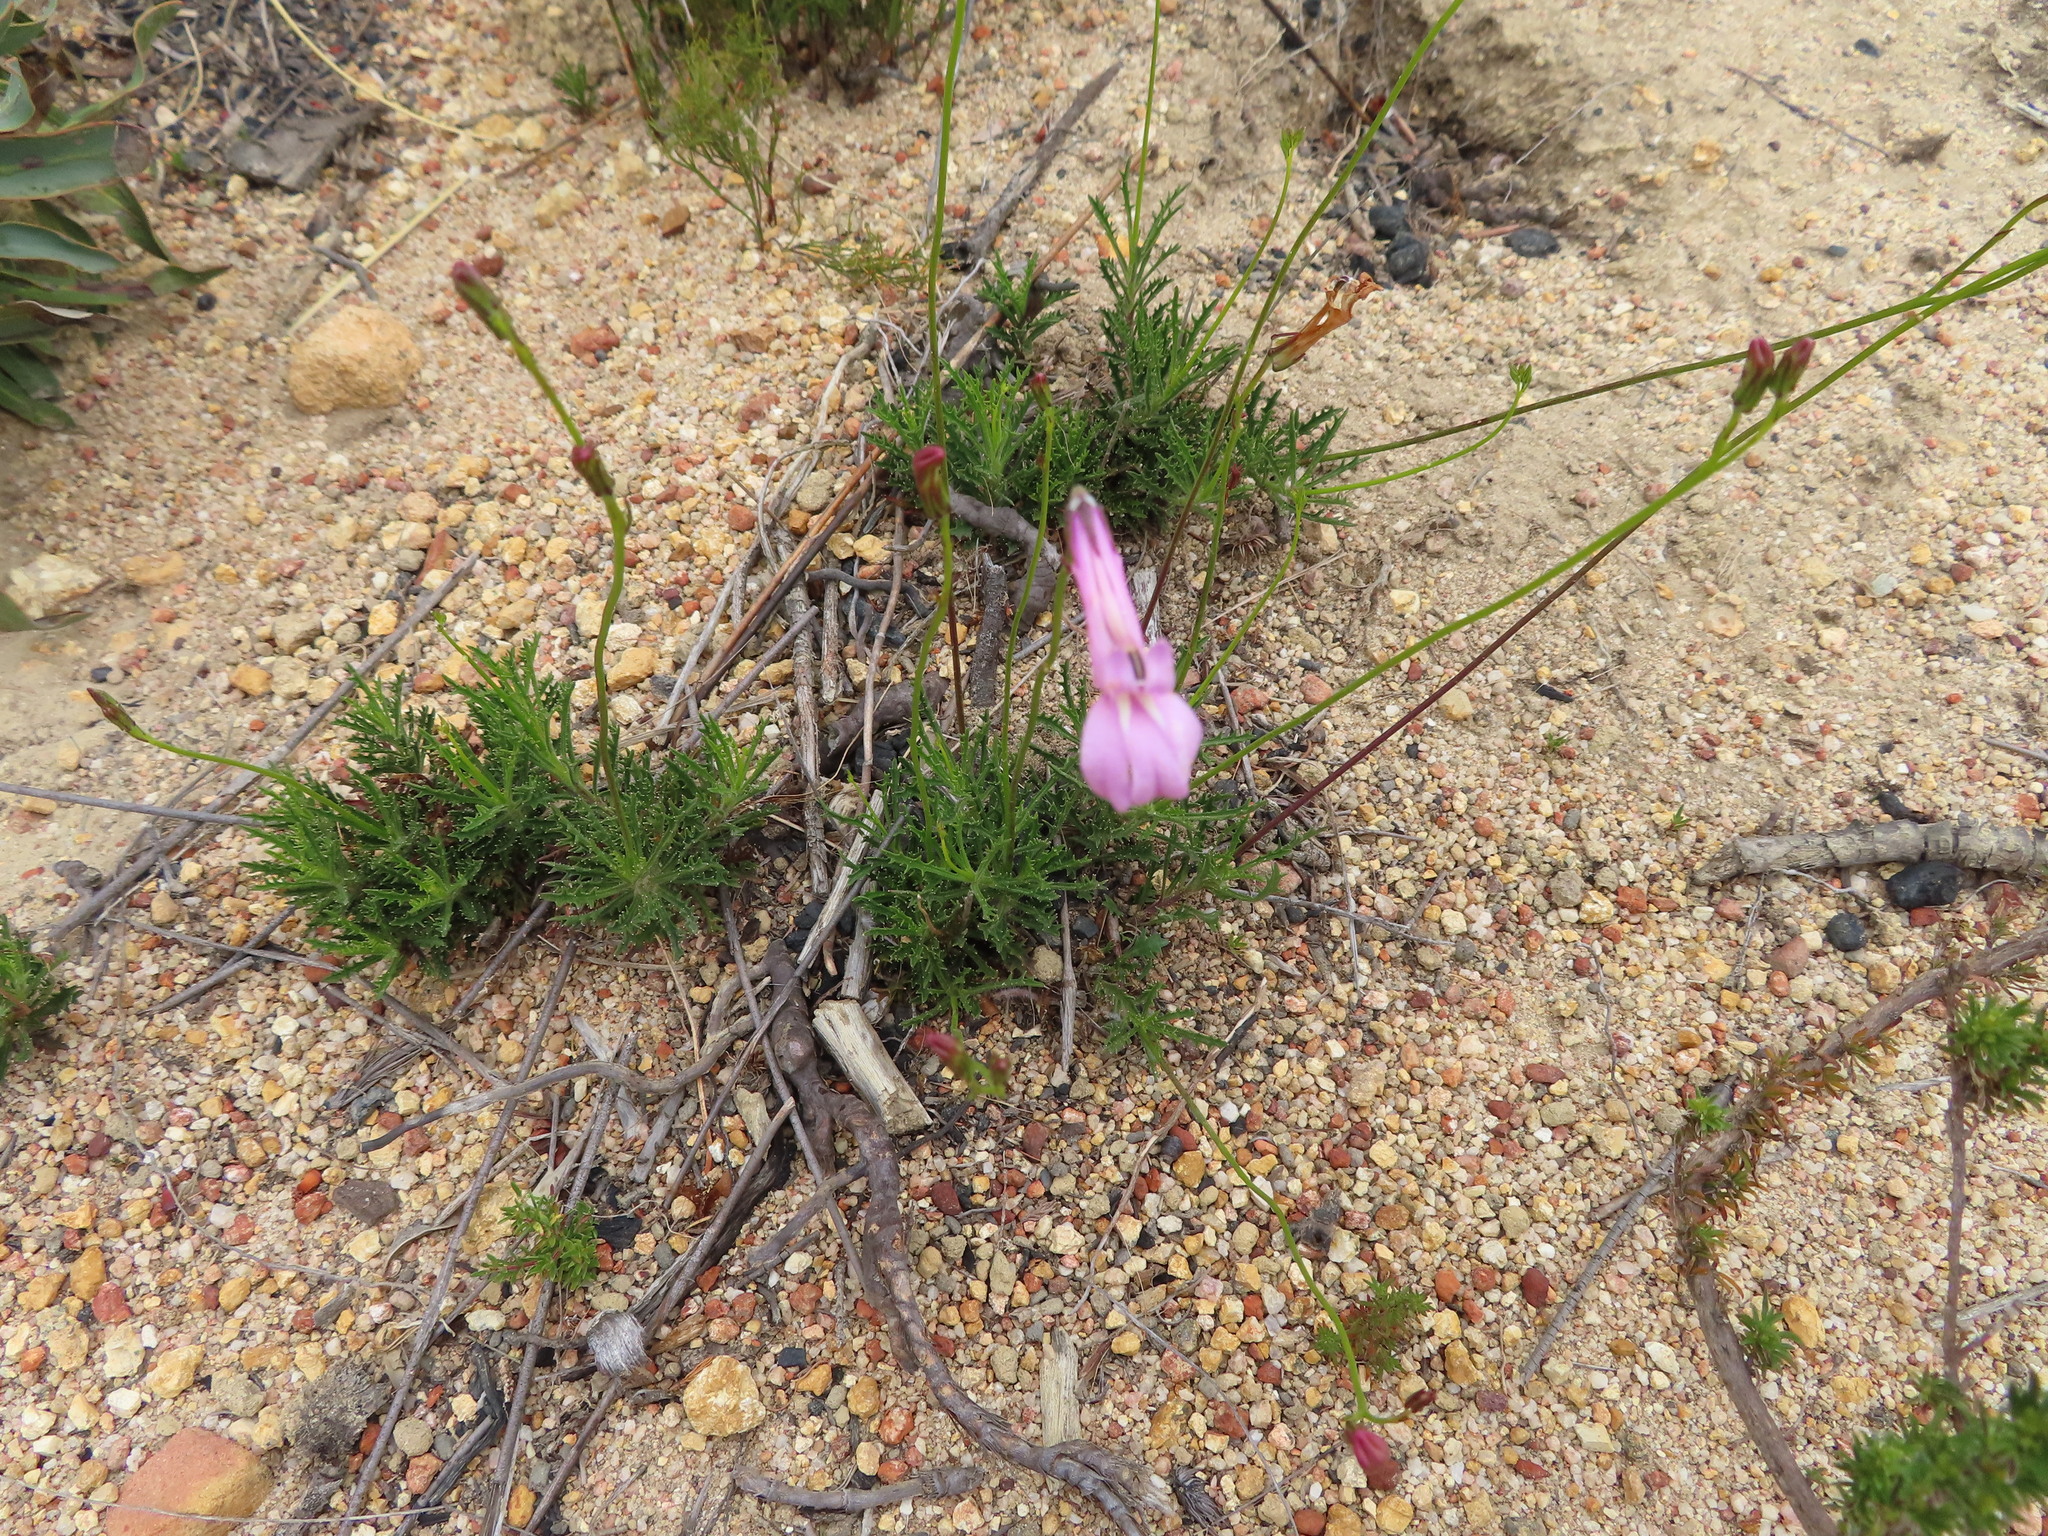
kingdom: Plantae
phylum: Tracheophyta
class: Magnoliopsida
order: Asterales
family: Campanulaceae
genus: Lobelia
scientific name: Lobelia coronopifolia
